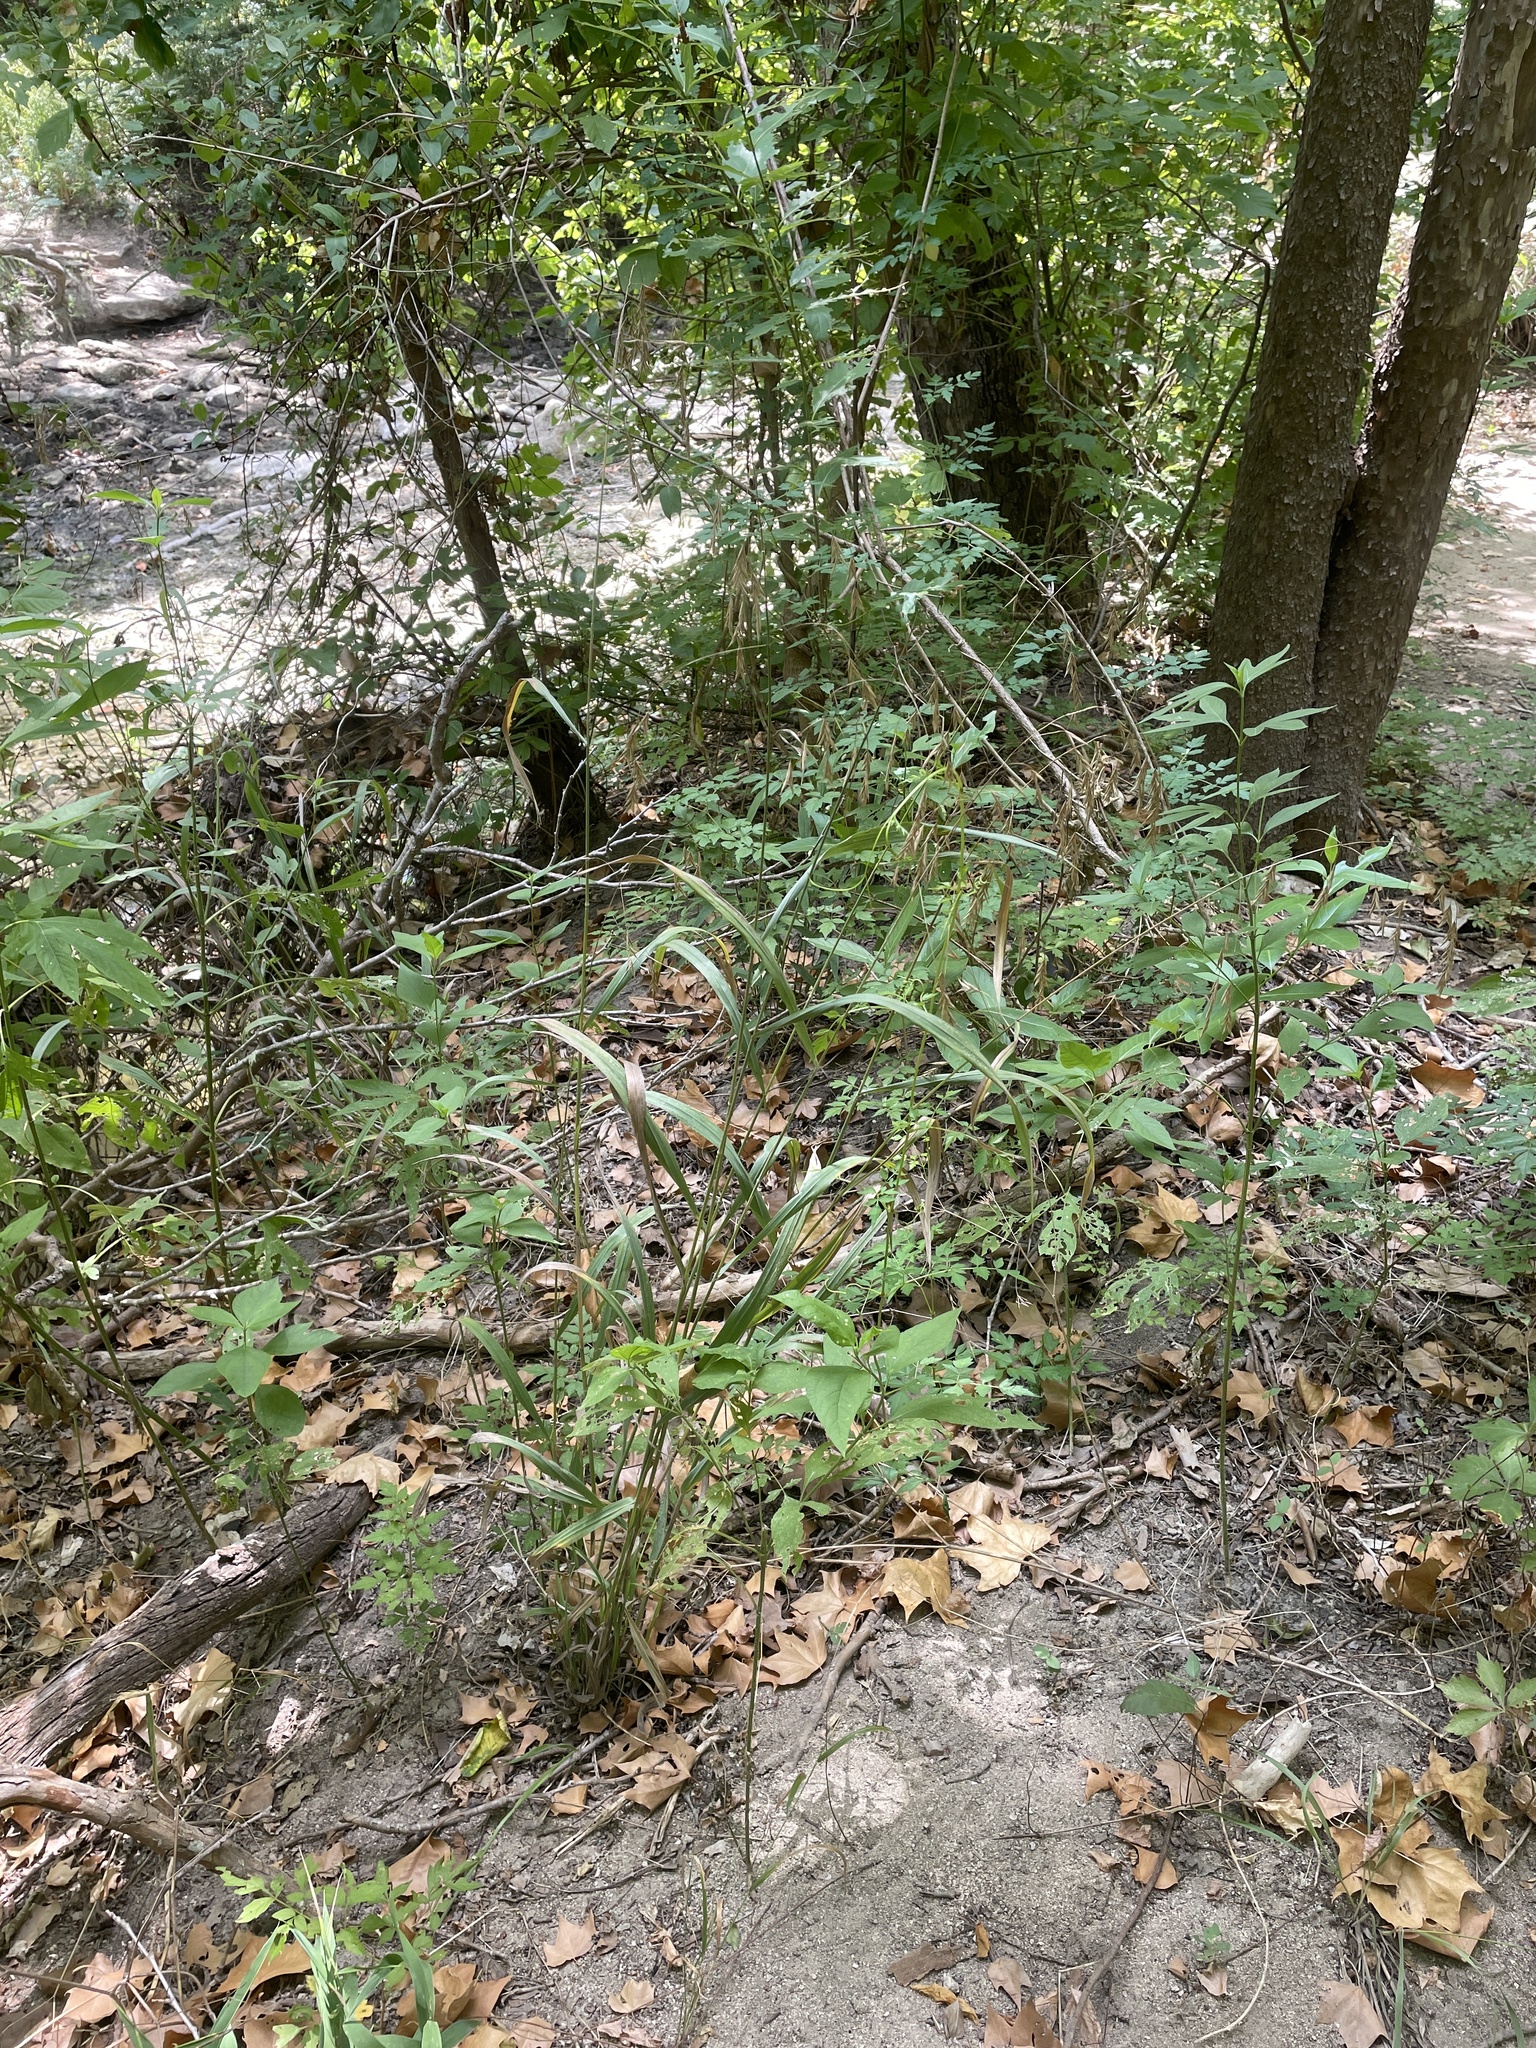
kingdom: Plantae
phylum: Tracheophyta
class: Liliopsida
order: Poales
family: Poaceae
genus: Bromus
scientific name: Bromus pubescens
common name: Hairy wood brome grass
